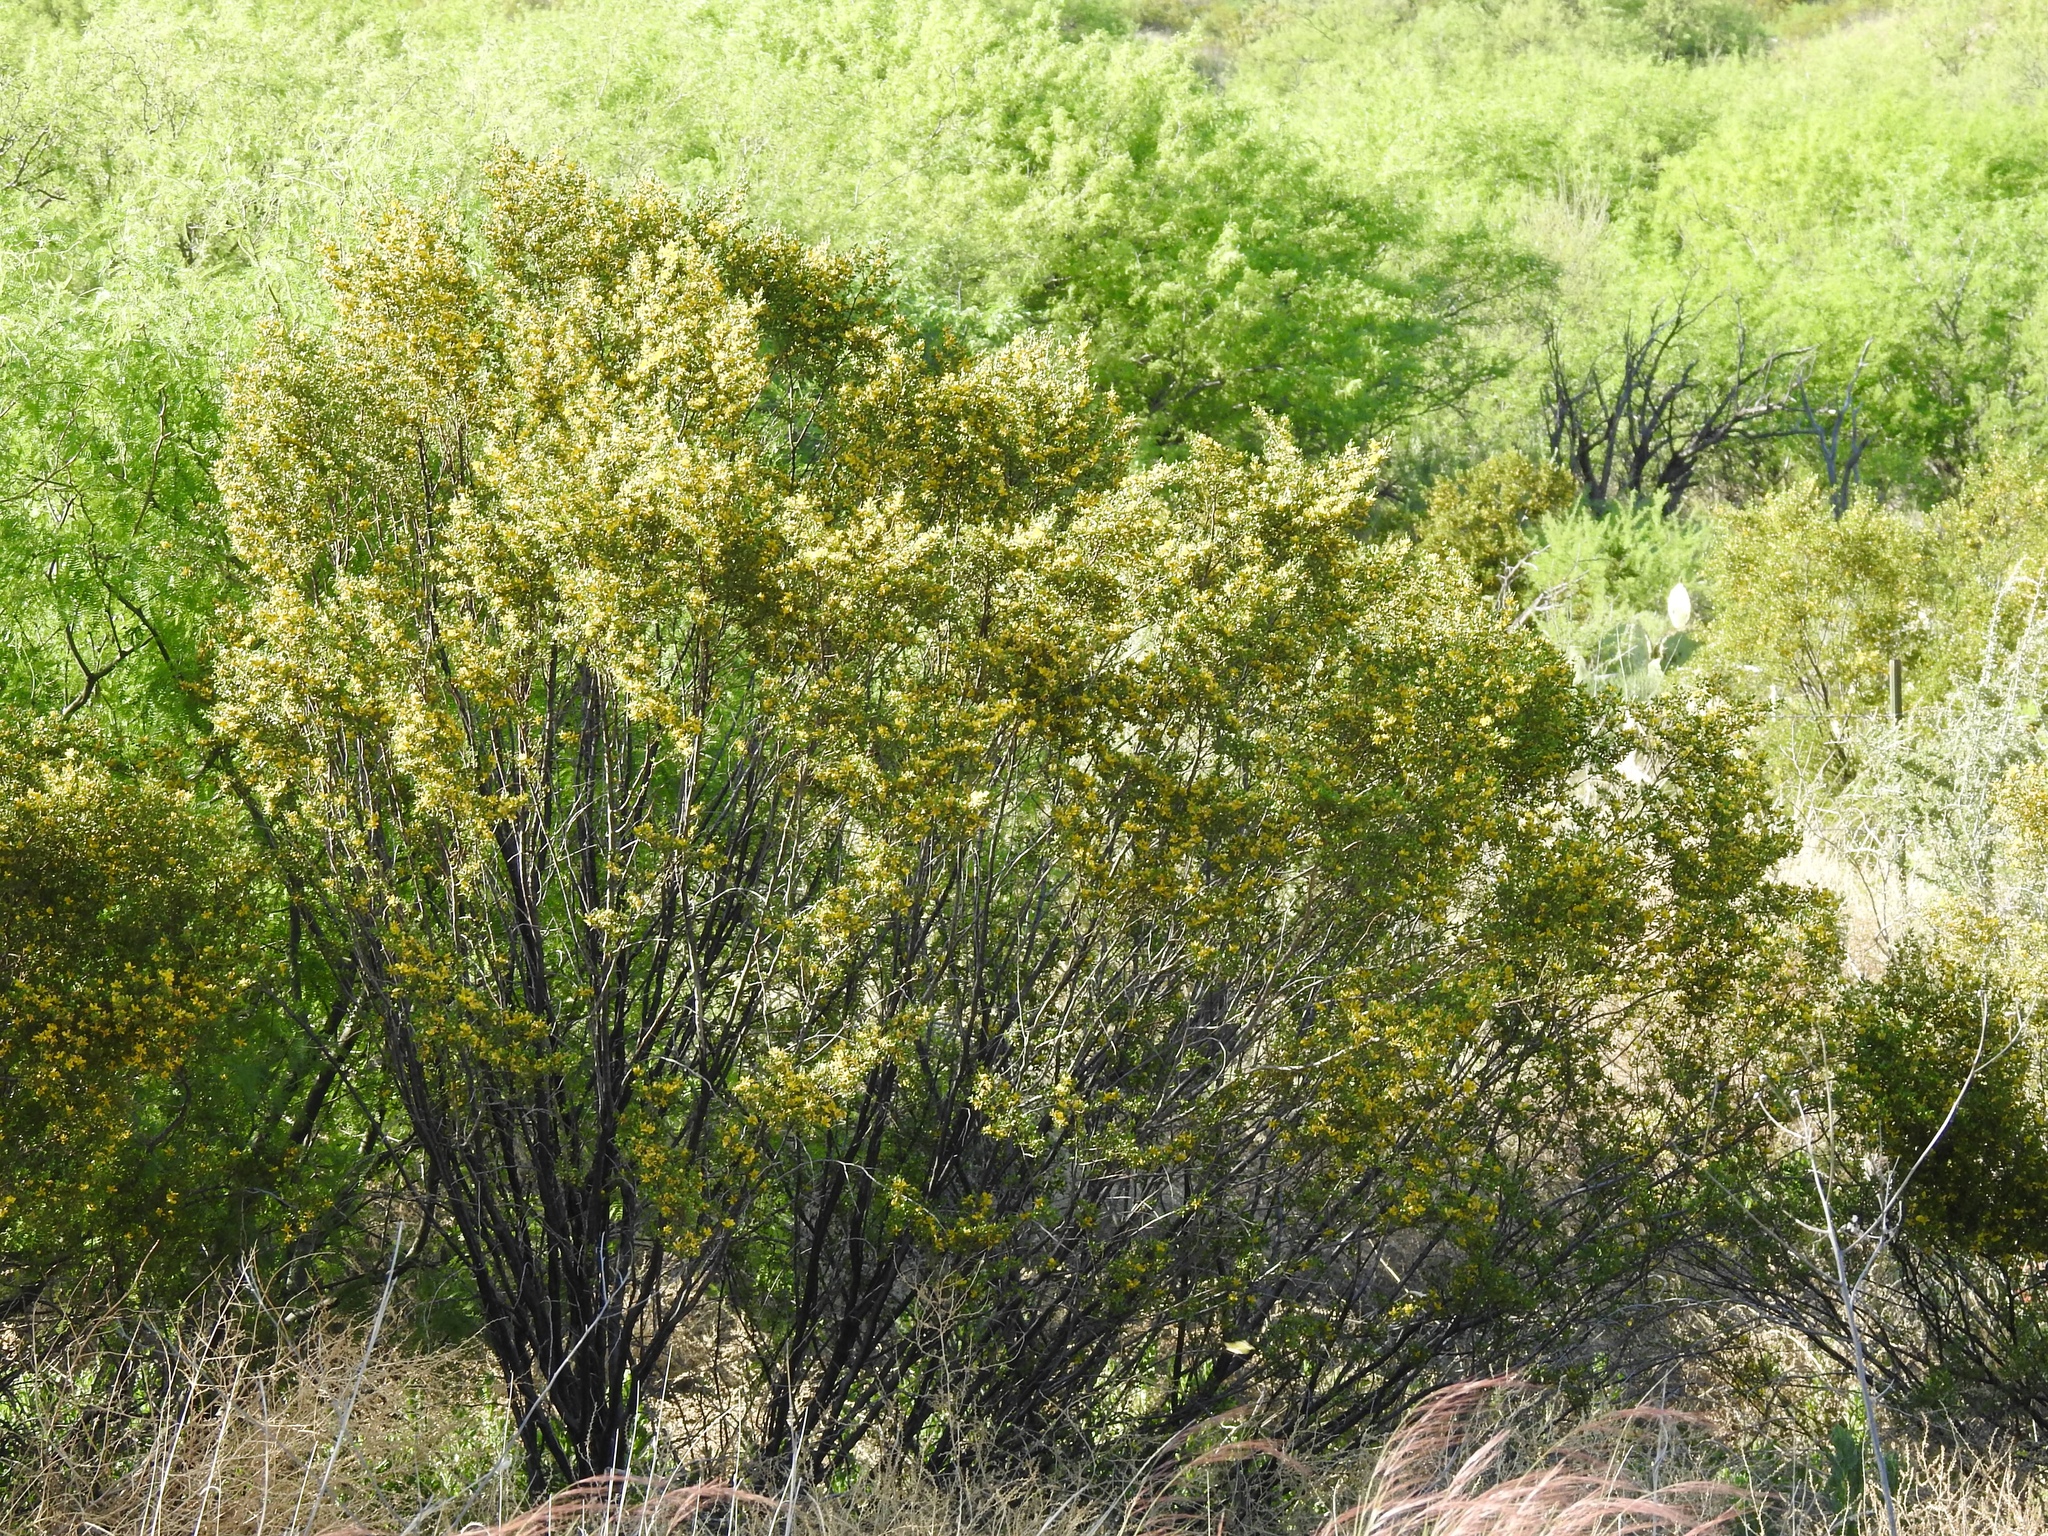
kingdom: Plantae
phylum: Tracheophyta
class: Magnoliopsida
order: Zygophyllales
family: Zygophyllaceae
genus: Larrea
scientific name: Larrea tridentata
